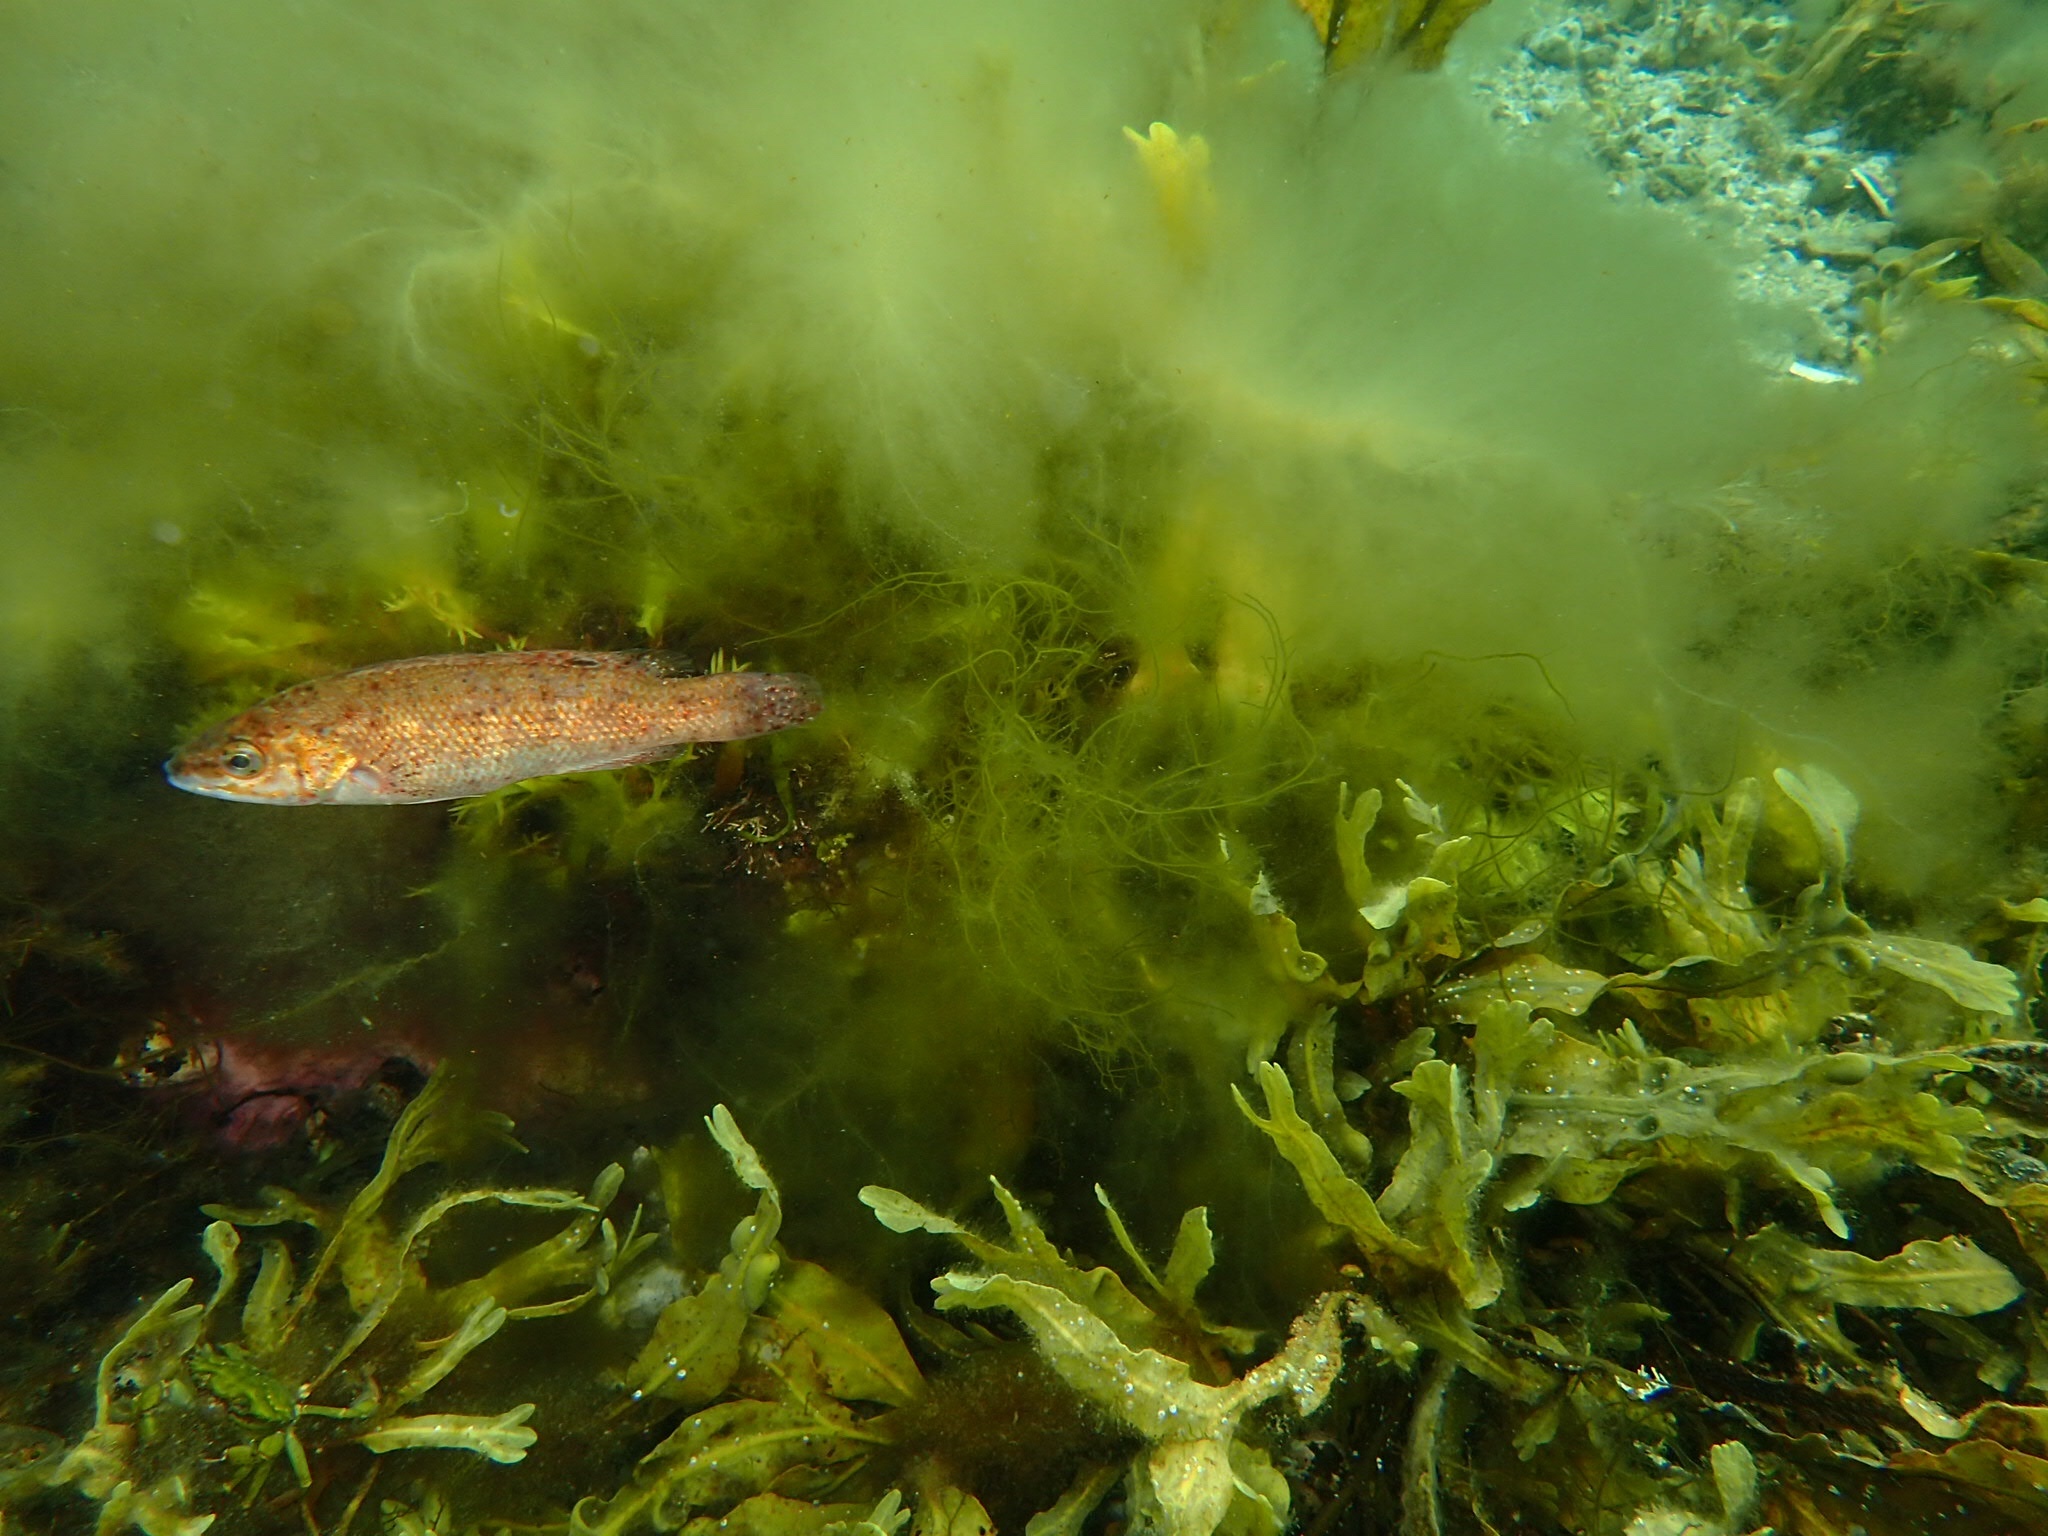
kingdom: Animalia
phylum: Chordata
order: Perciformes
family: Labridae
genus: Tautogolabrus
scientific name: Tautogolabrus adspersus
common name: Cunner
